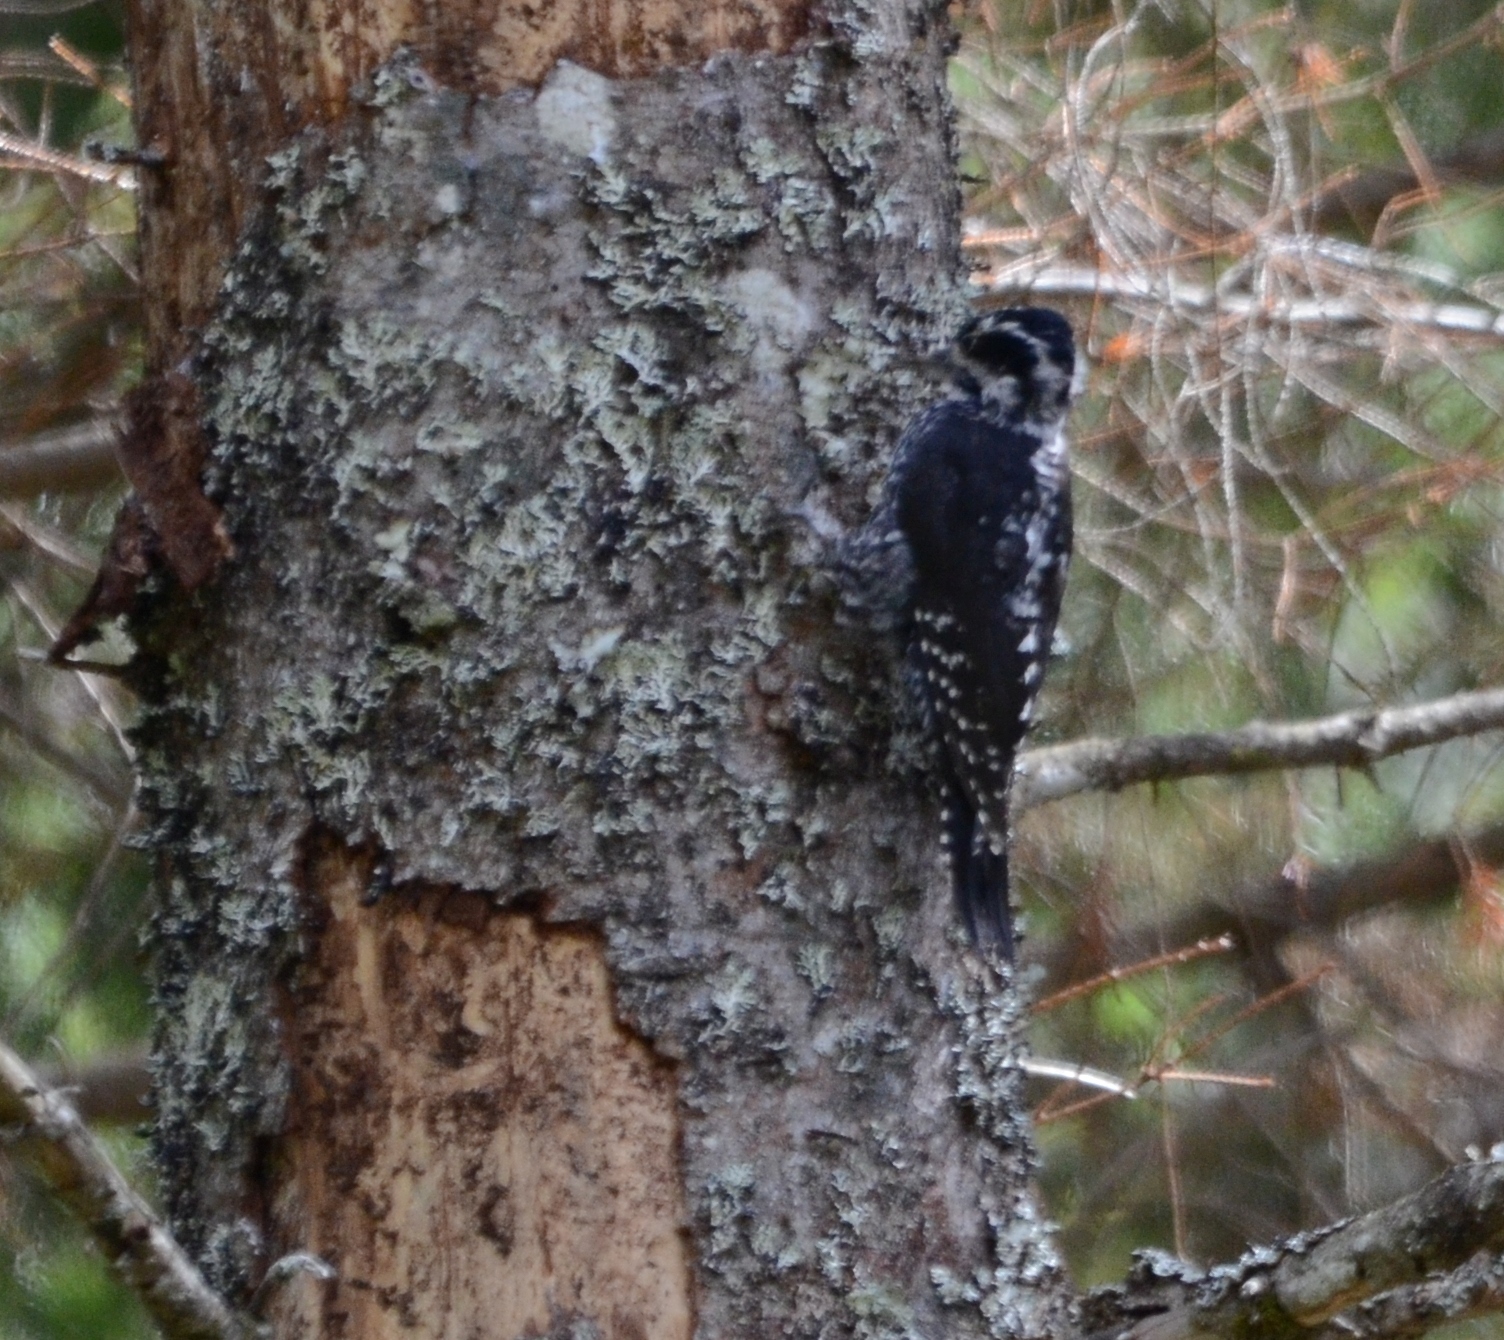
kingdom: Animalia
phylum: Chordata
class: Aves
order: Piciformes
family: Picidae
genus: Picoides
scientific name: Picoides tridactylus
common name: Eurasian three-toed woodpecker
